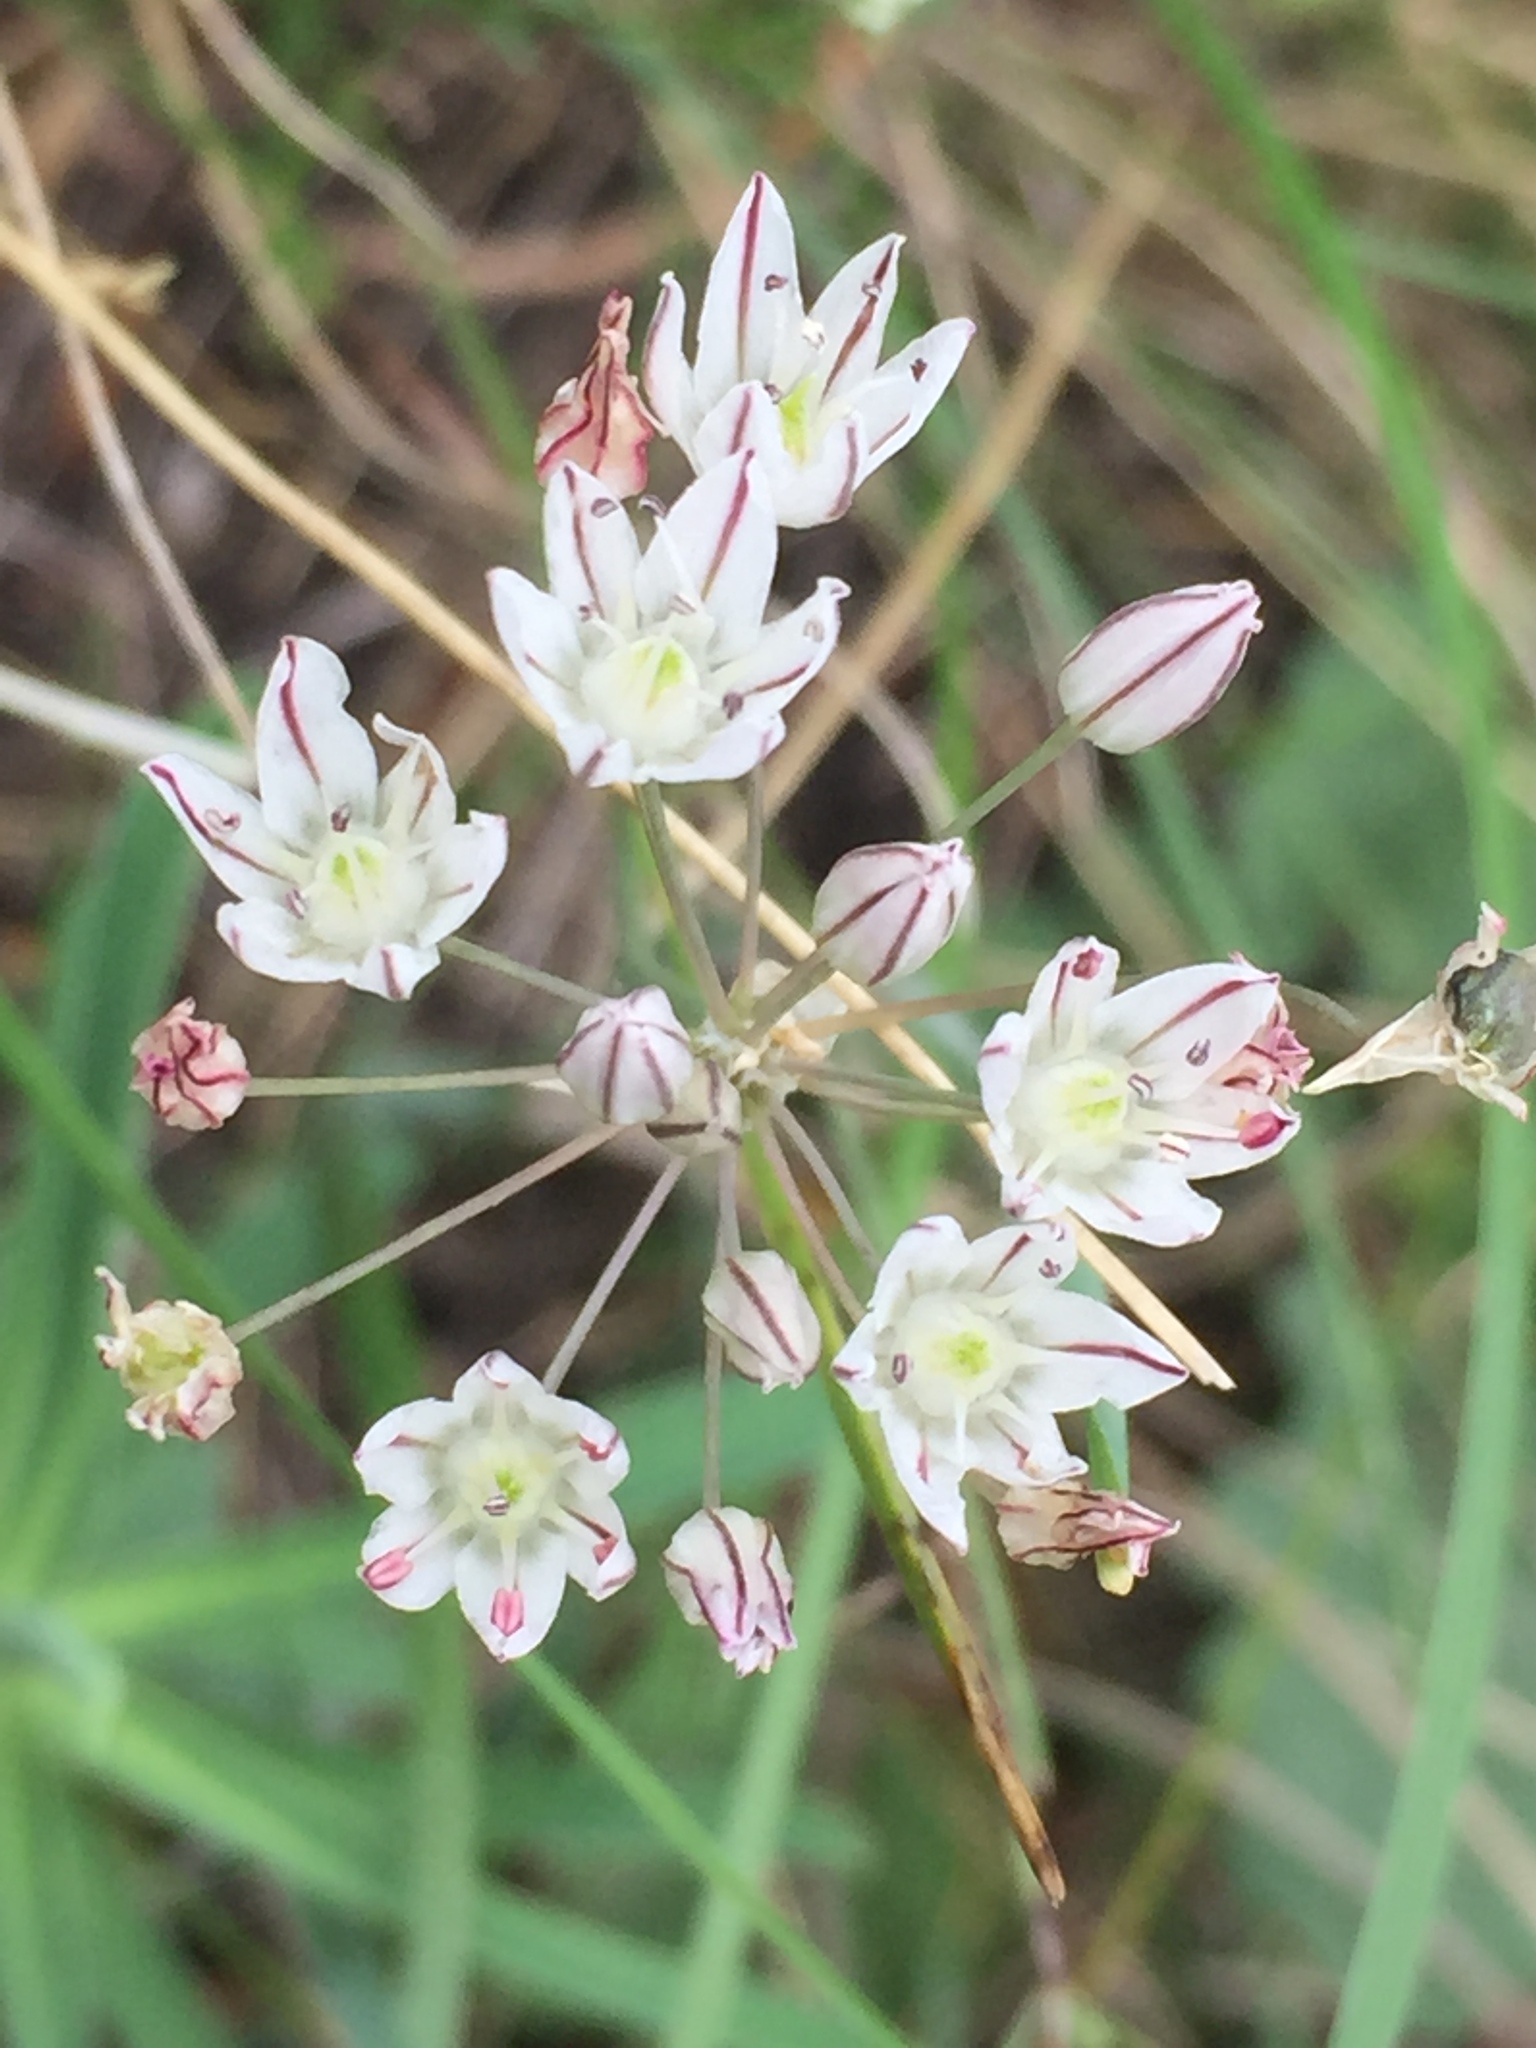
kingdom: Plantae
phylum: Tracheophyta
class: Liliopsida
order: Asparagales
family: Amaryllidaceae
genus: Allium
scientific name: Allium inaequale
